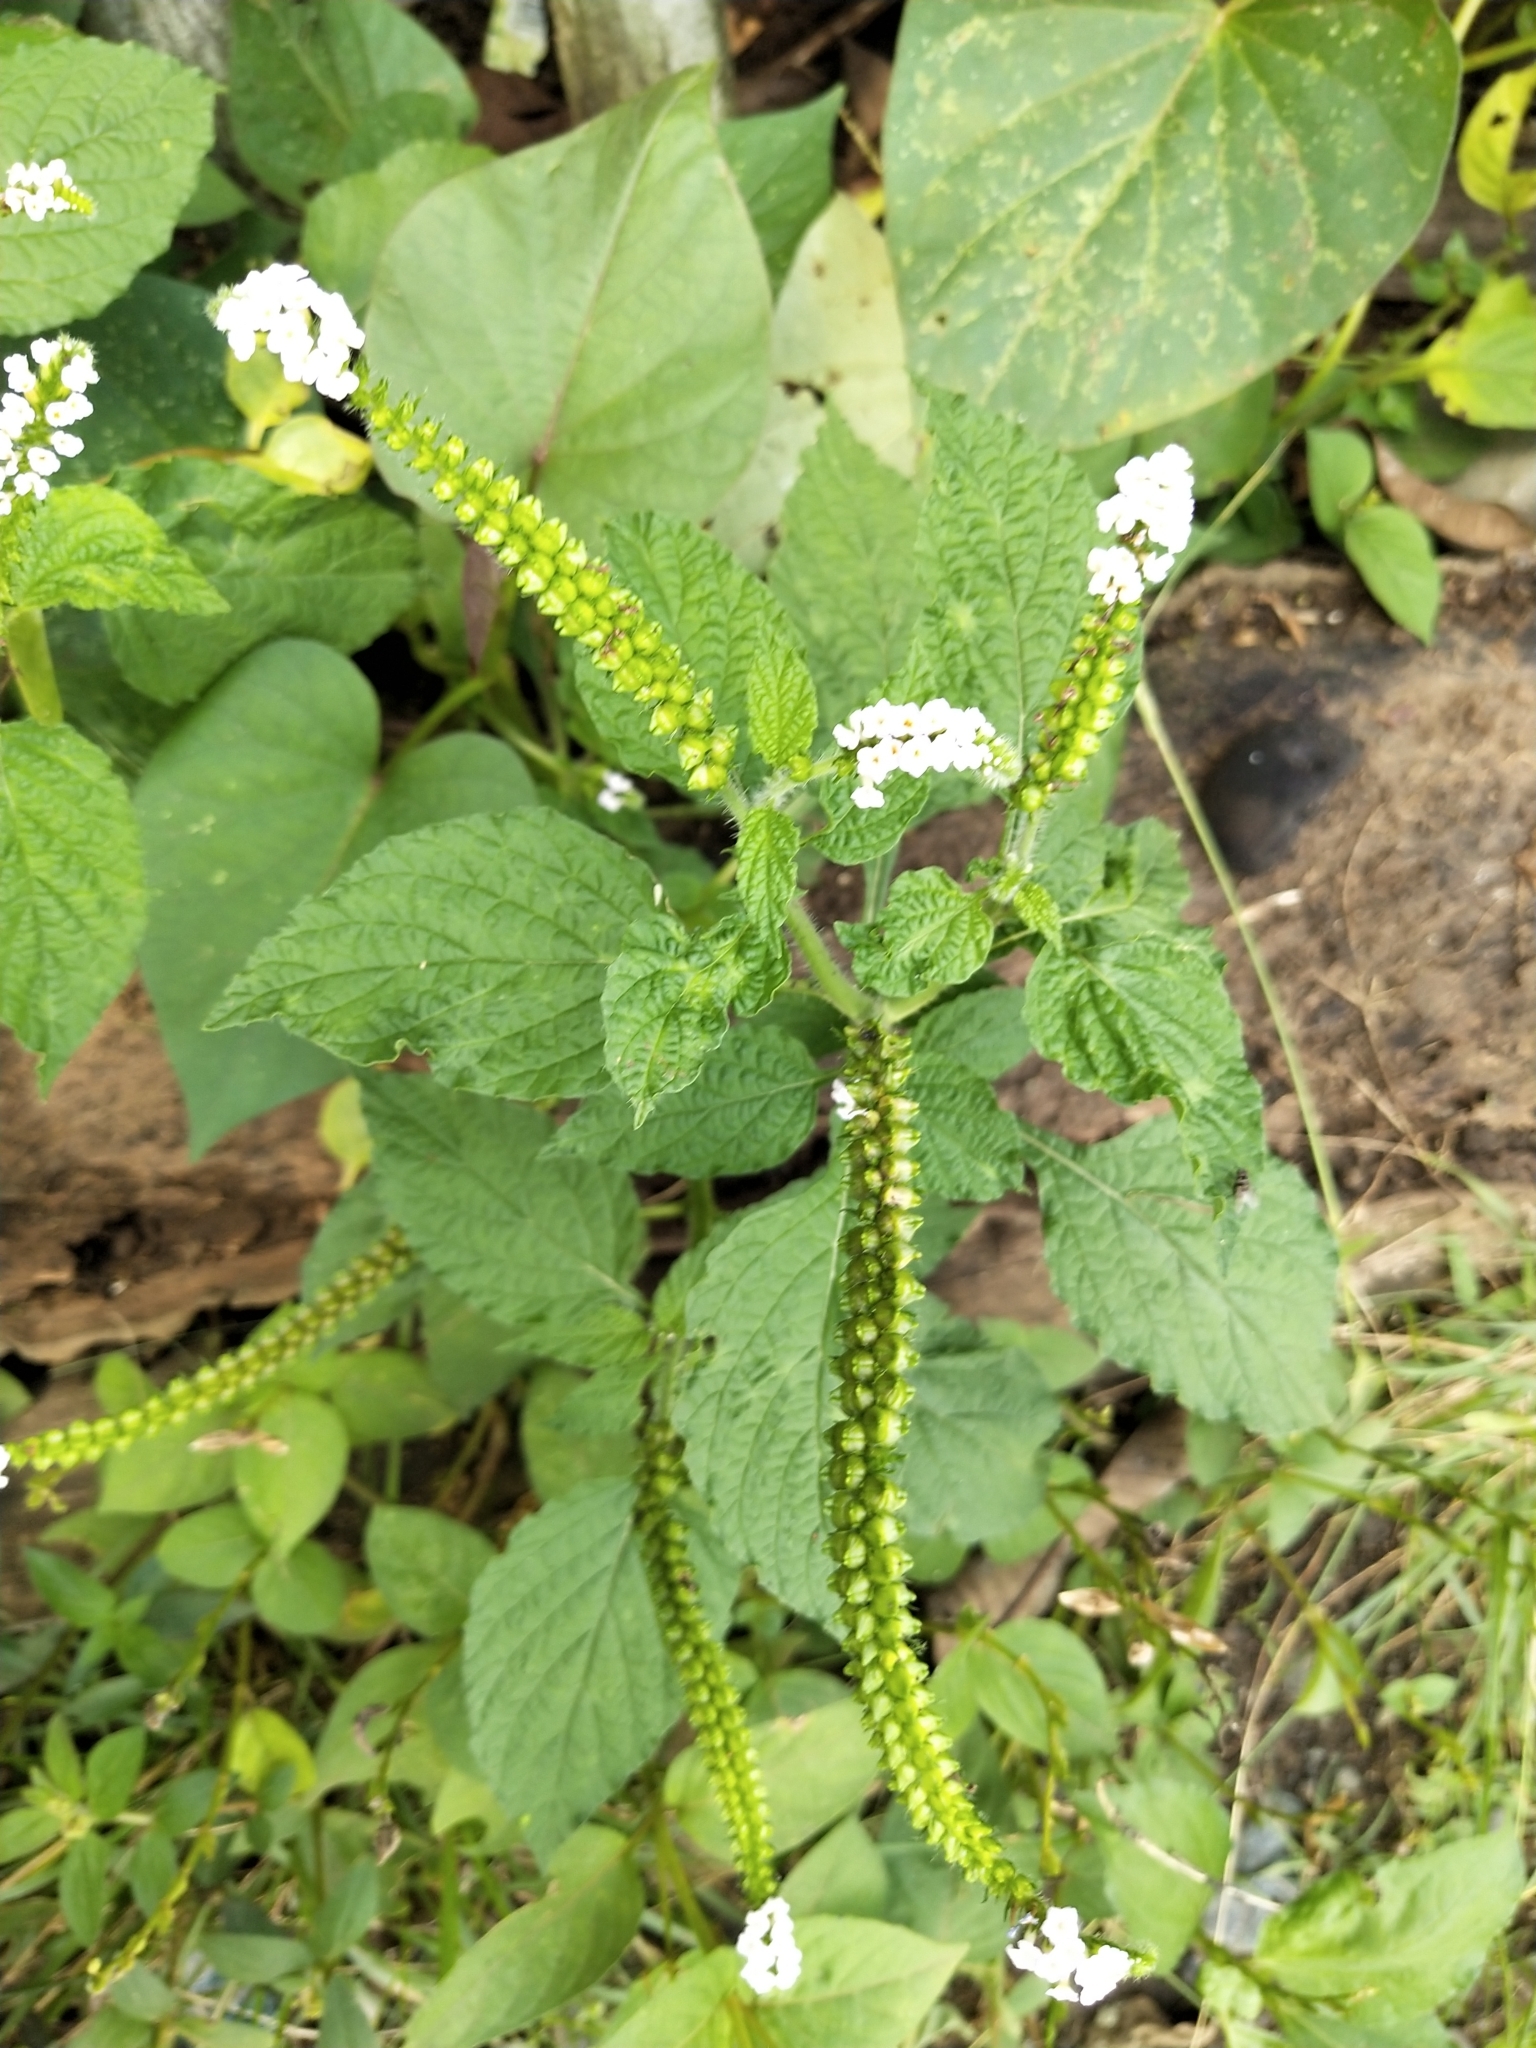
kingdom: Plantae
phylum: Tracheophyta
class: Magnoliopsida
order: Boraginales
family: Heliotropiaceae
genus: Heliotropium
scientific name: Heliotropium indicum
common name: Indian heliotrope
